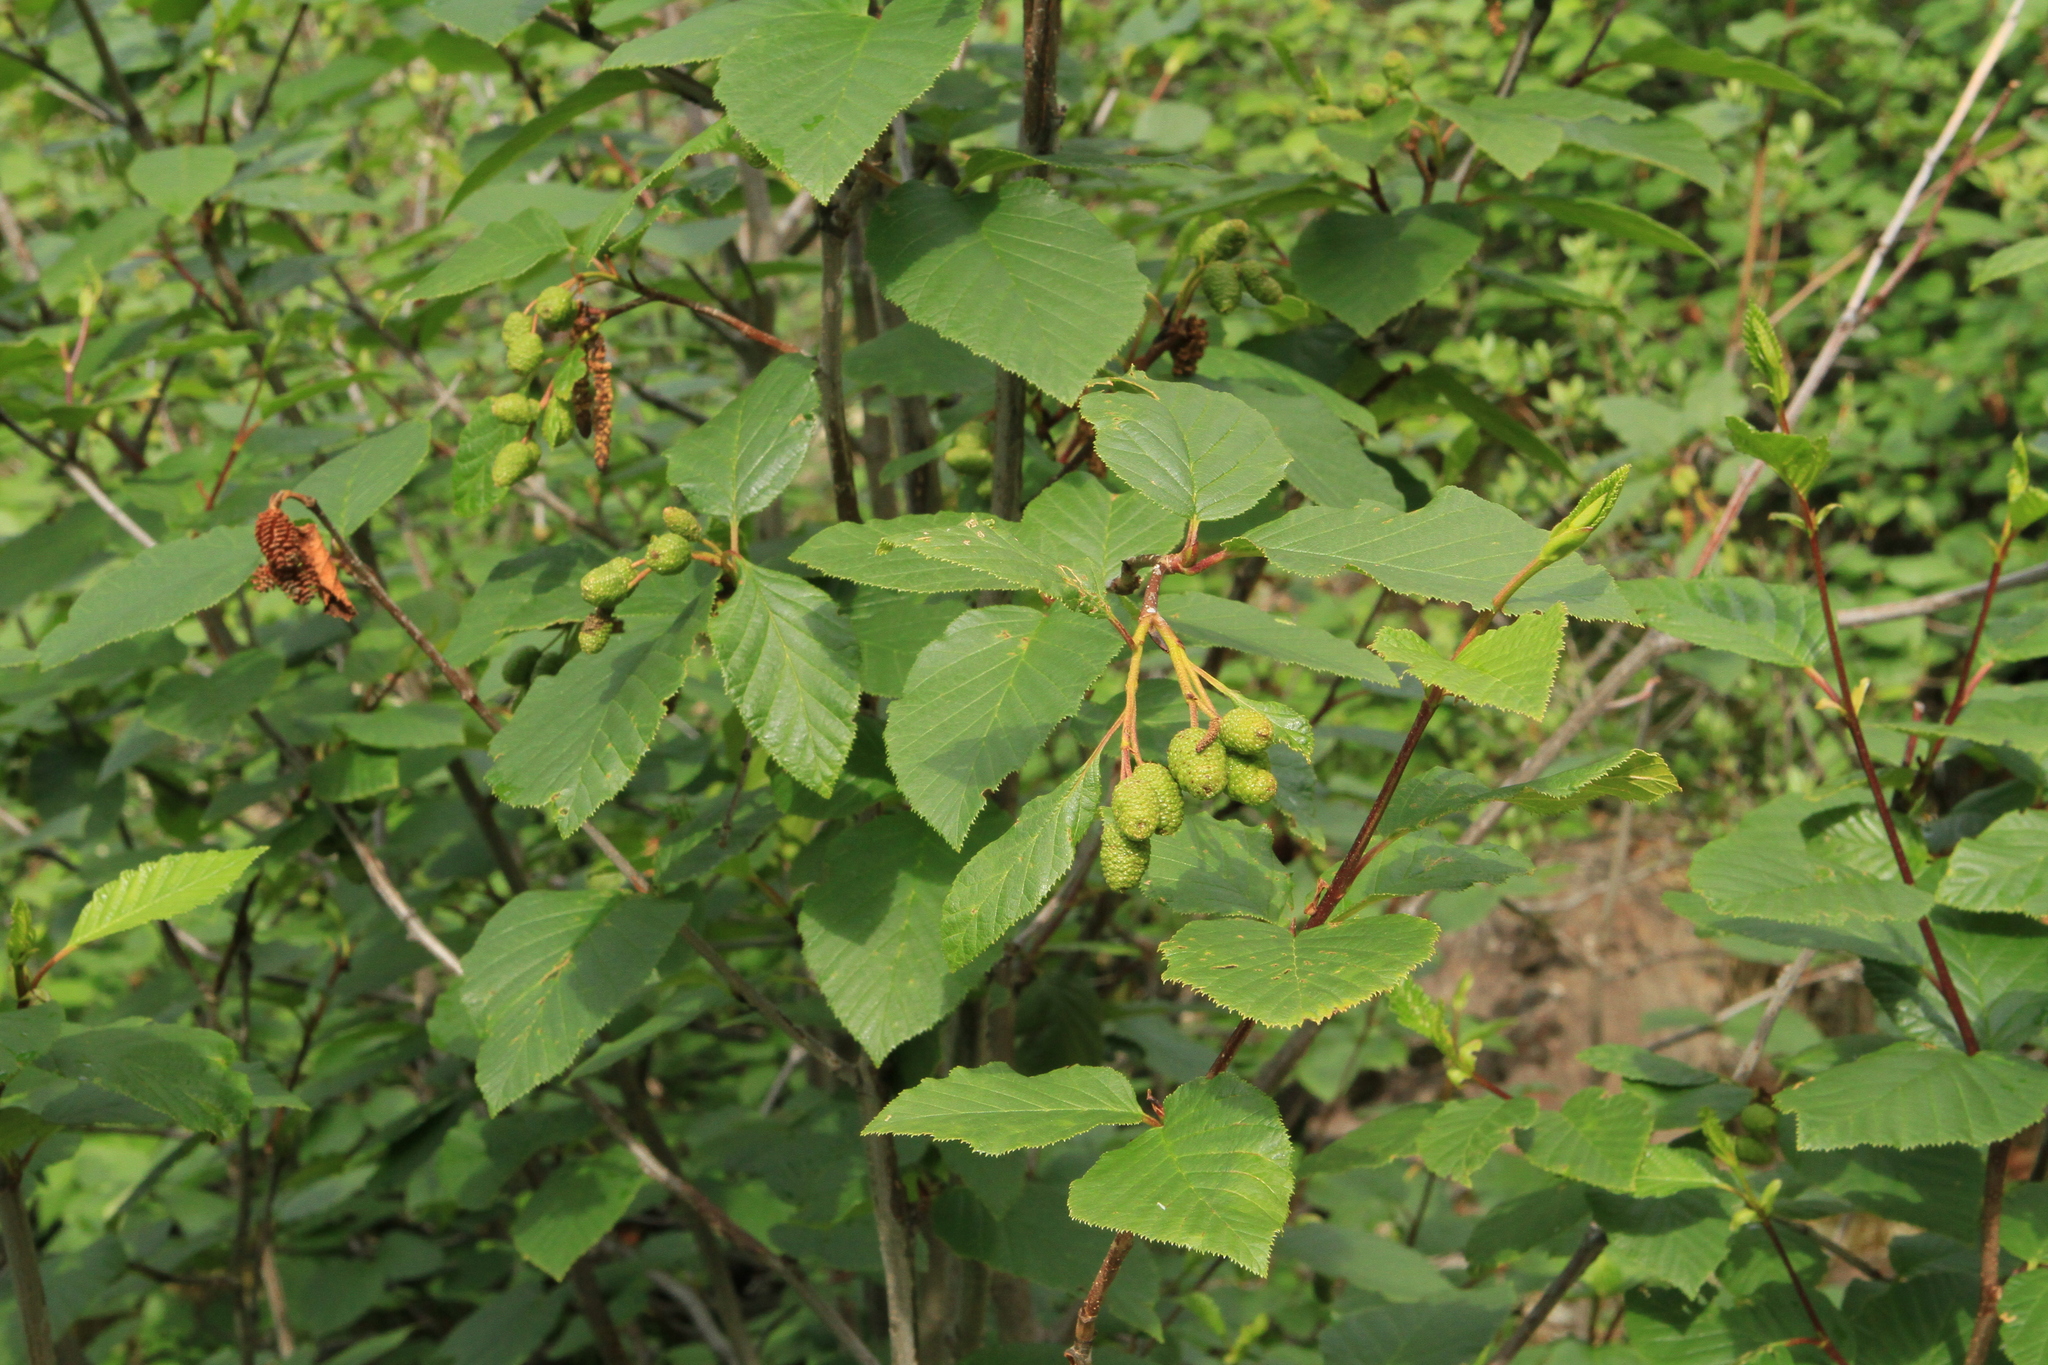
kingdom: Plantae
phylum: Tracheophyta
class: Magnoliopsida
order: Fagales
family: Betulaceae
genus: Alnus
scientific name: Alnus alnobetula
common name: Green alder
